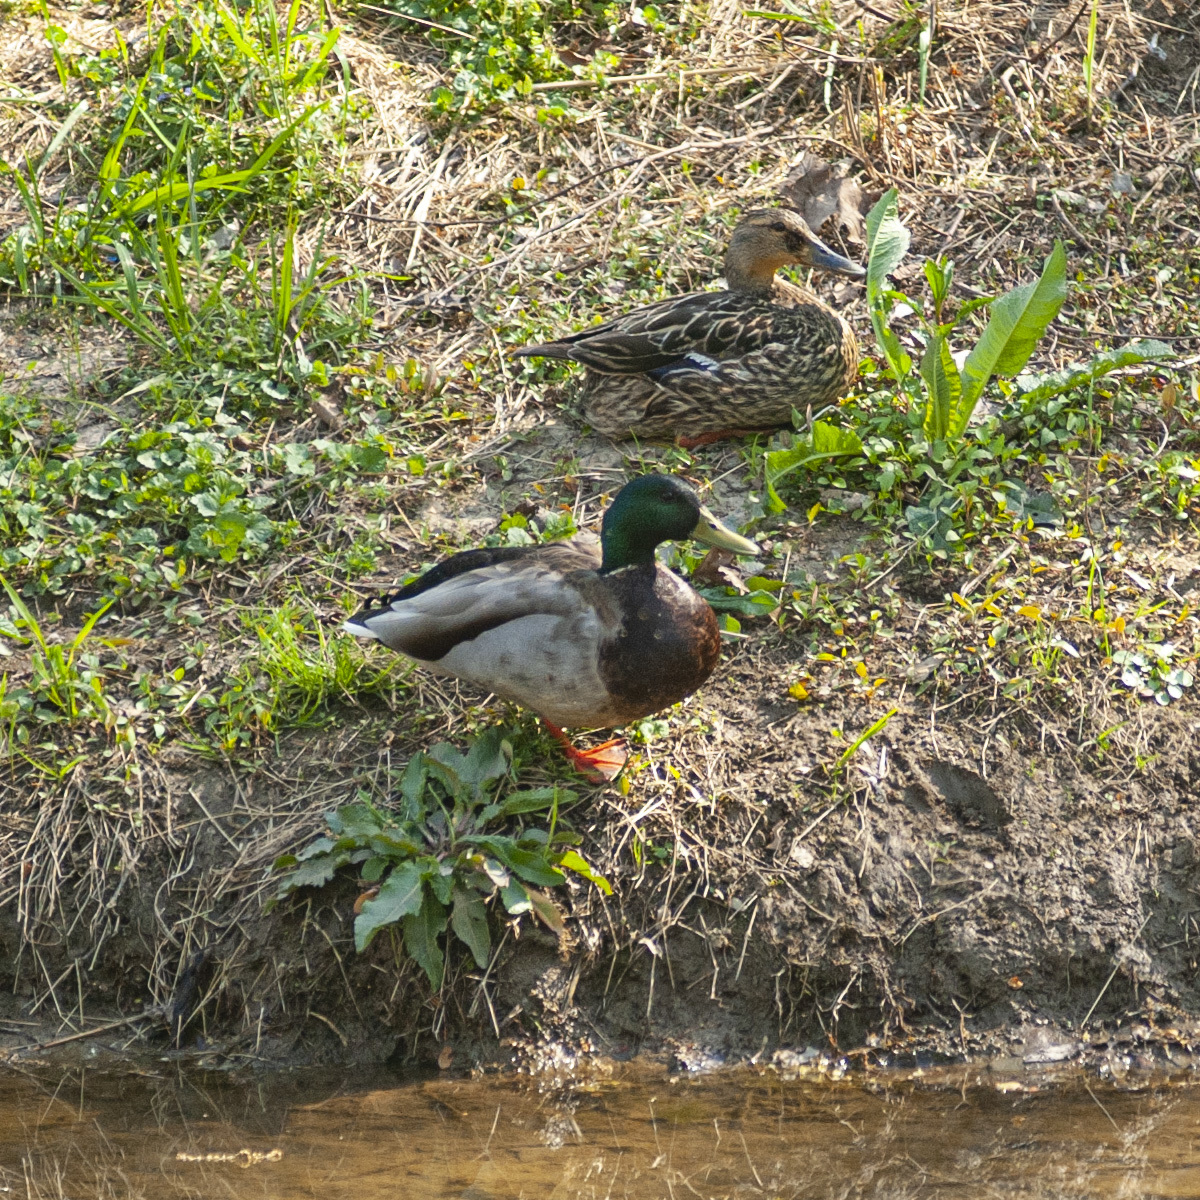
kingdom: Animalia
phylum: Chordata
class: Aves
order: Anseriformes
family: Anatidae
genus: Anas
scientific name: Anas platyrhynchos
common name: Mallard
